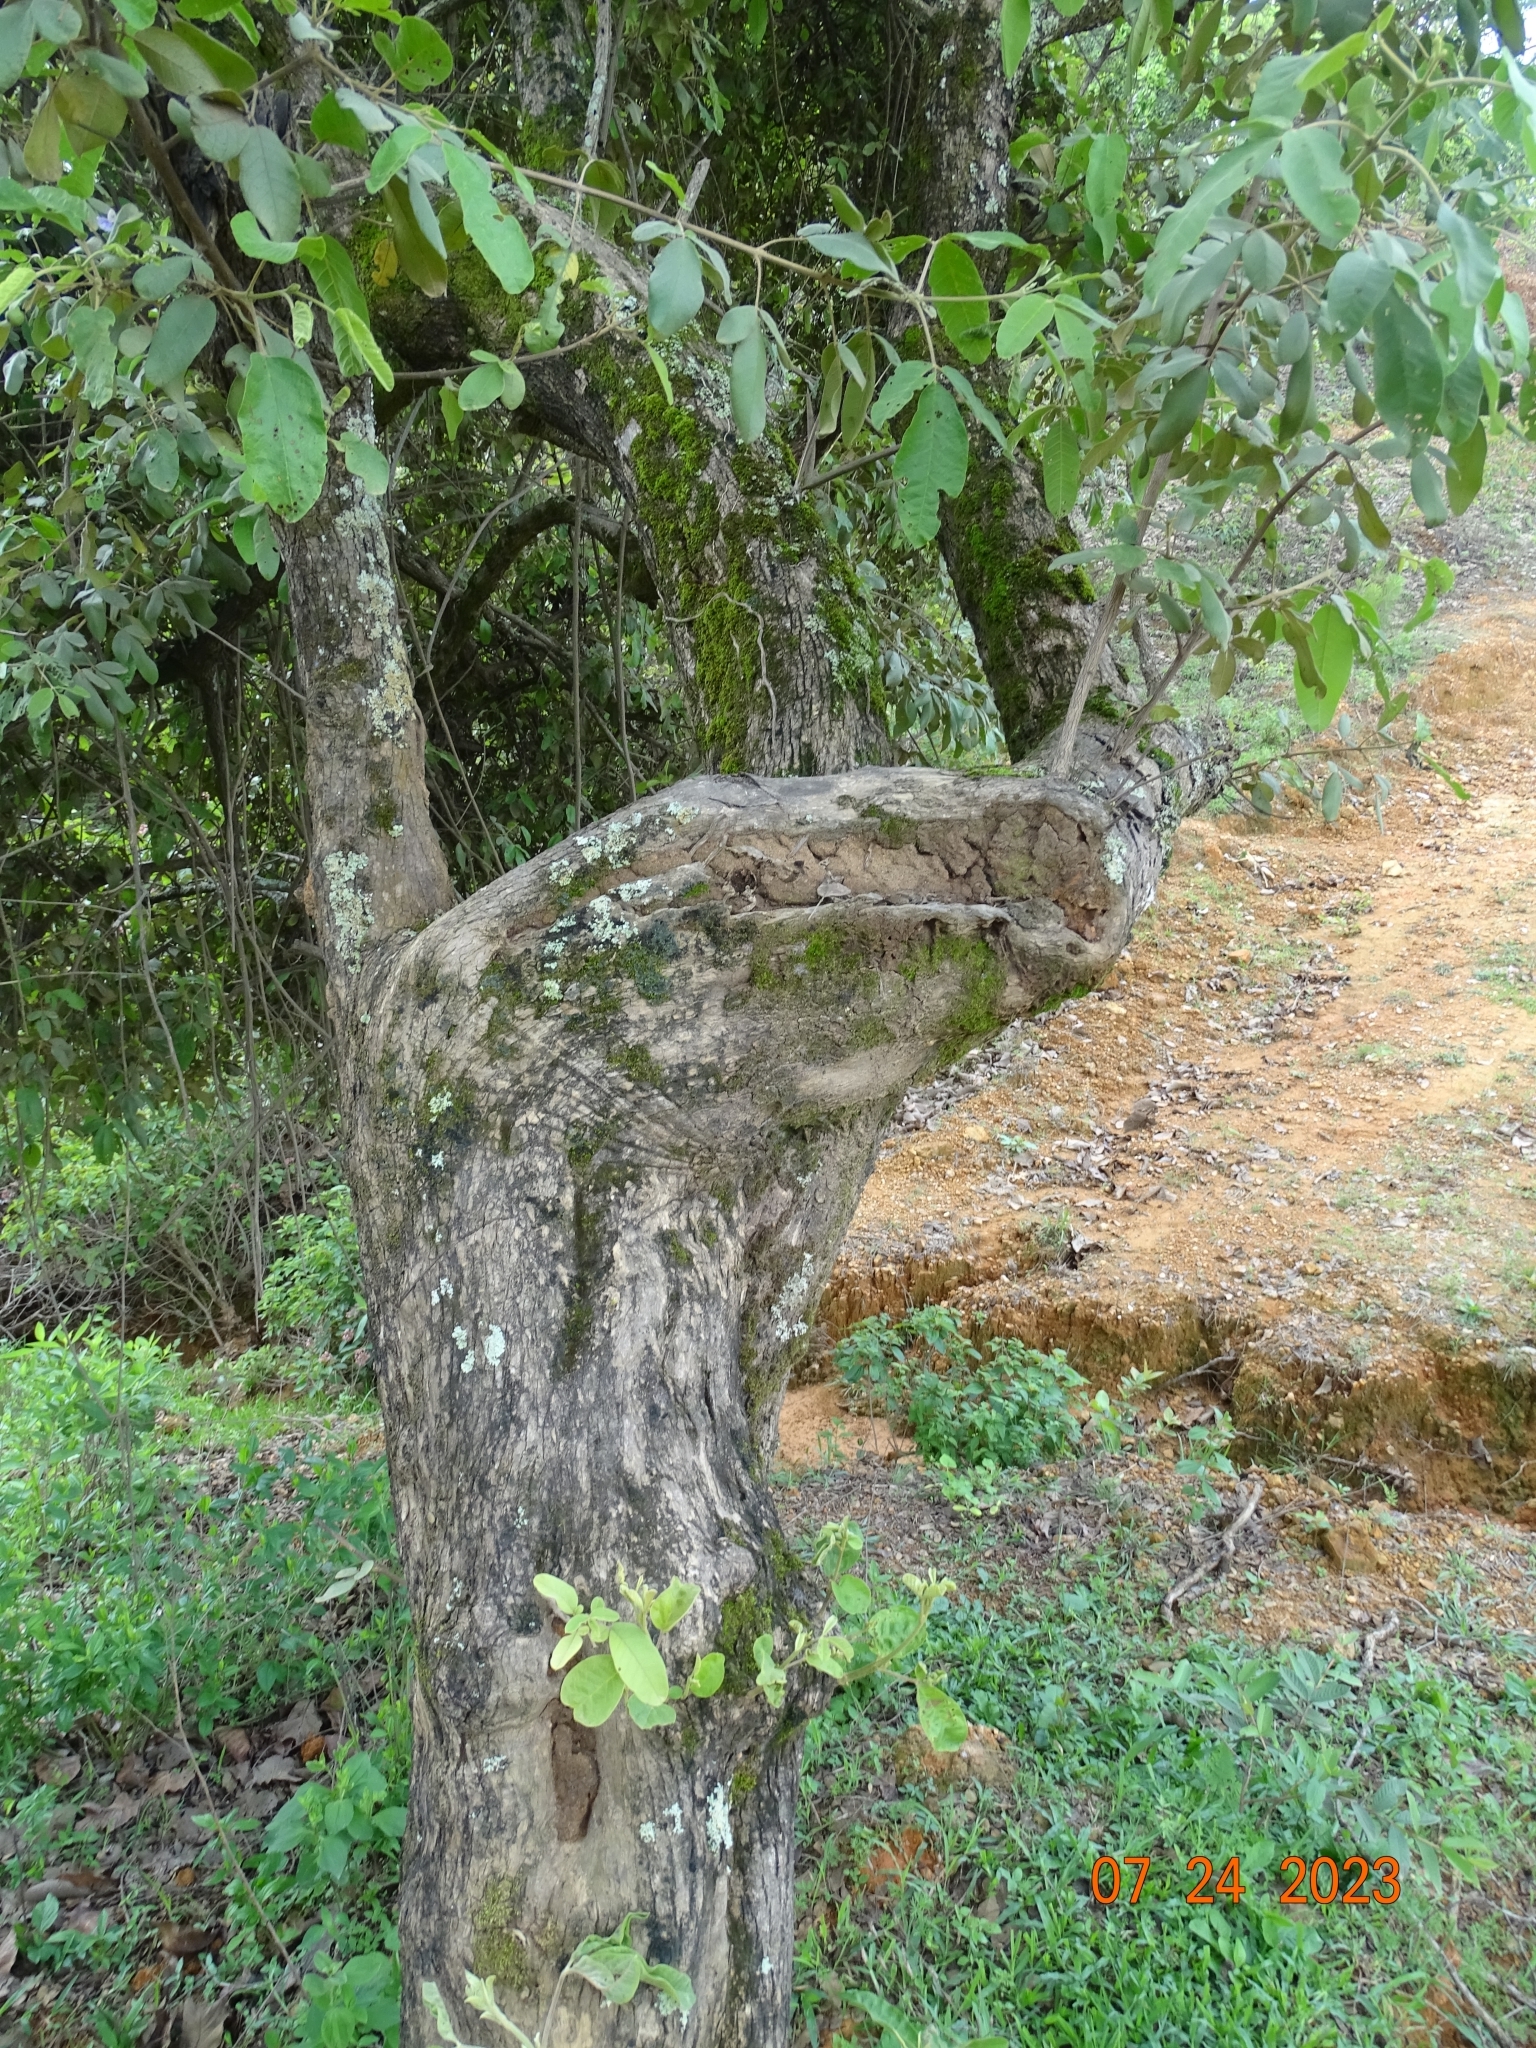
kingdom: Plantae
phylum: Tracheophyta
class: Magnoliopsida
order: Lamiales
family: Lamiaceae
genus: Vitex
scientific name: Vitex mollis
